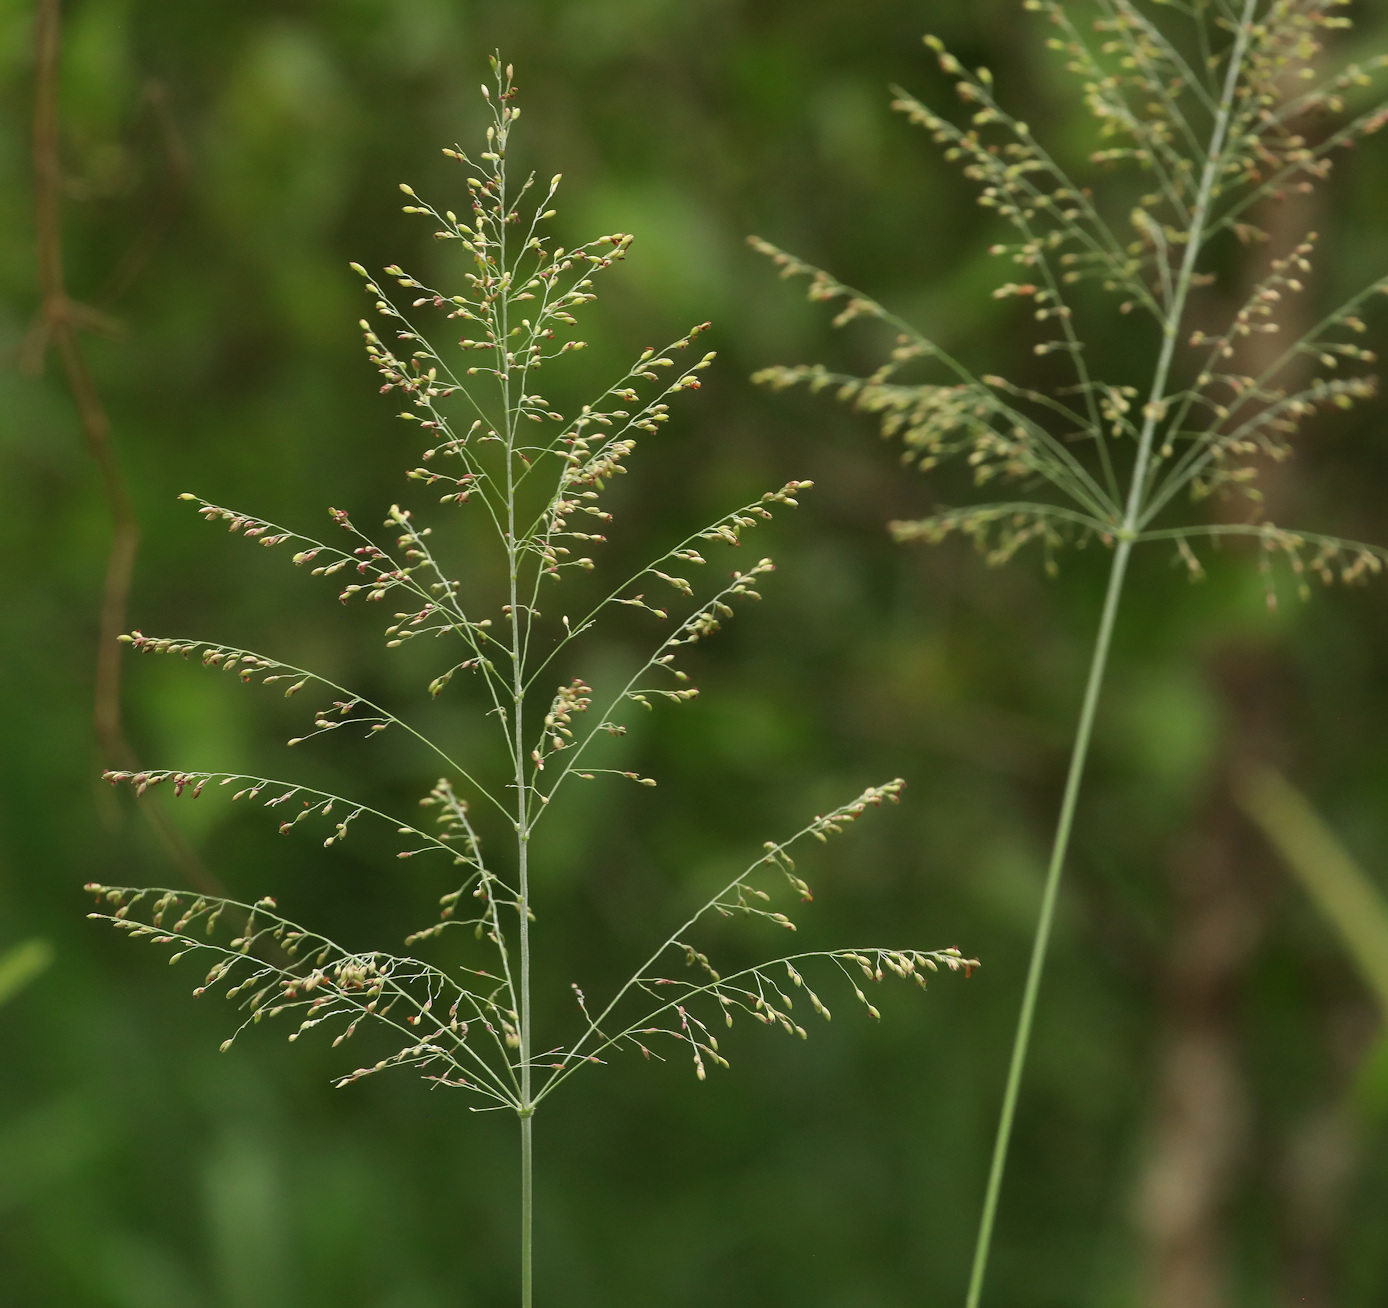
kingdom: Plantae
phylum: Tracheophyta
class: Liliopsida
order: Poales
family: Poaceae
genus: Megathyrsus
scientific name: Megathyrsus maximus
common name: Guineagrass
